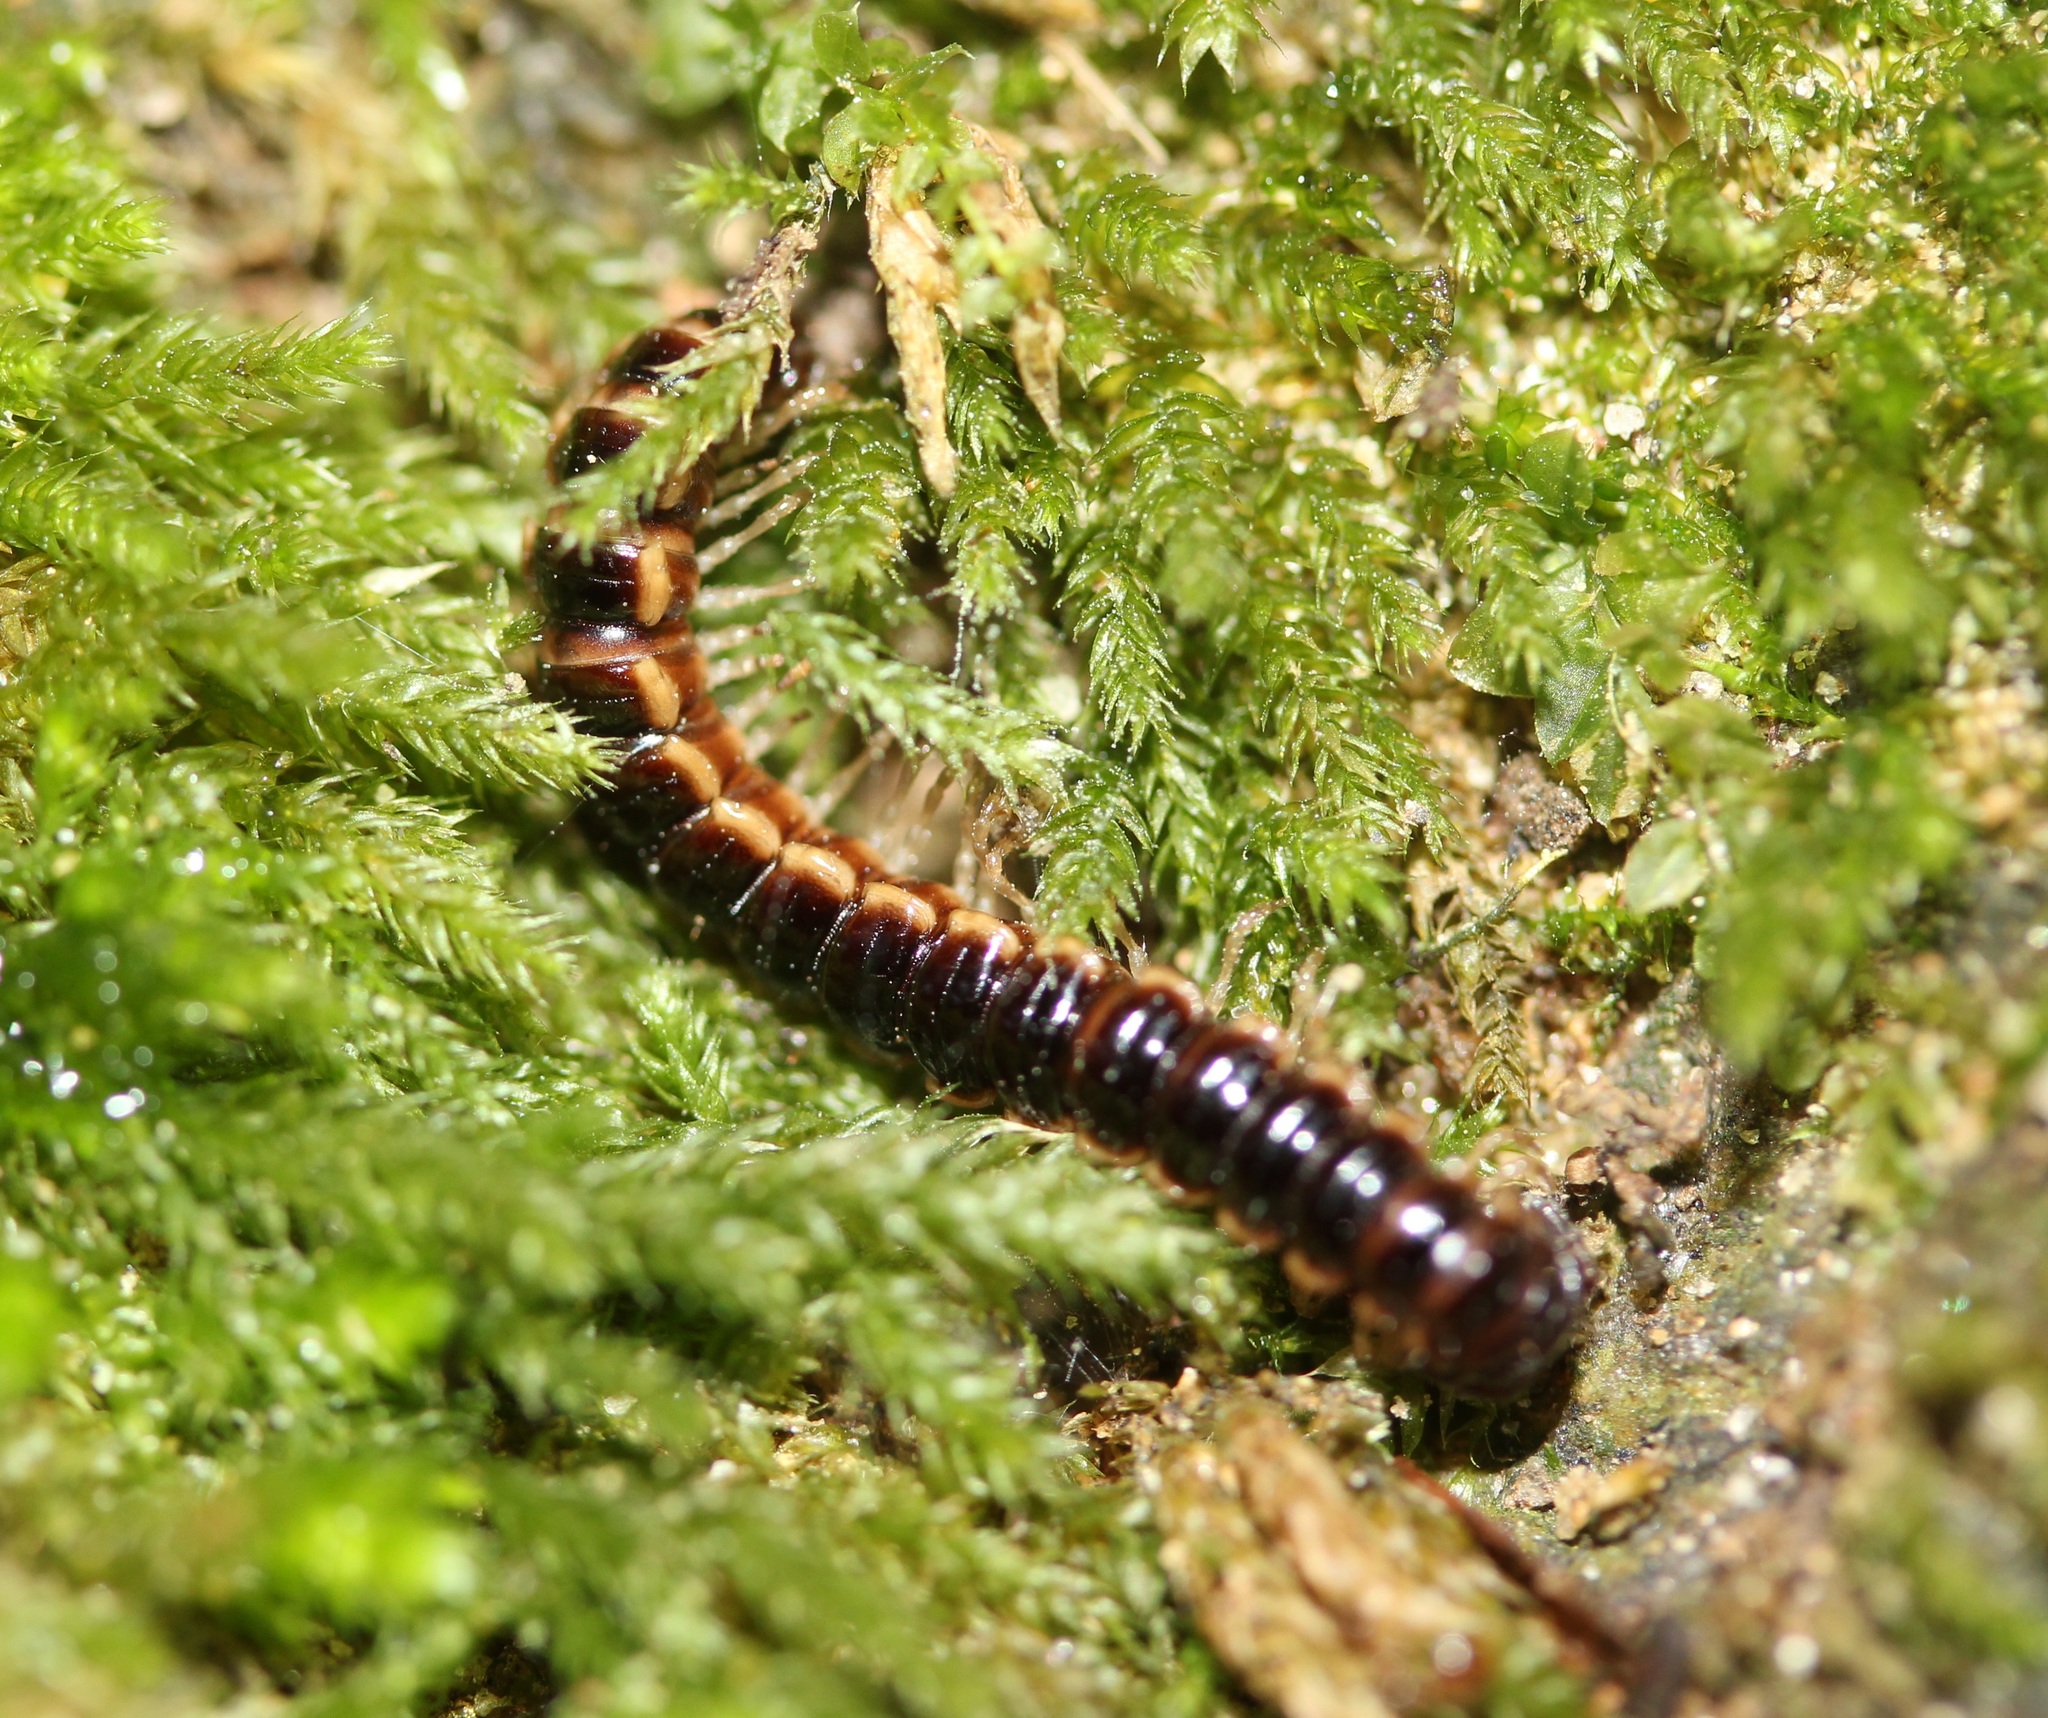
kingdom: Animalia
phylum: Arthropoda
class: Diplopoda
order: Polydesmida
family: Paradoxosomatidae
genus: Oxidus
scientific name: Oxidus gracilis
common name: Greenhouse millipede
